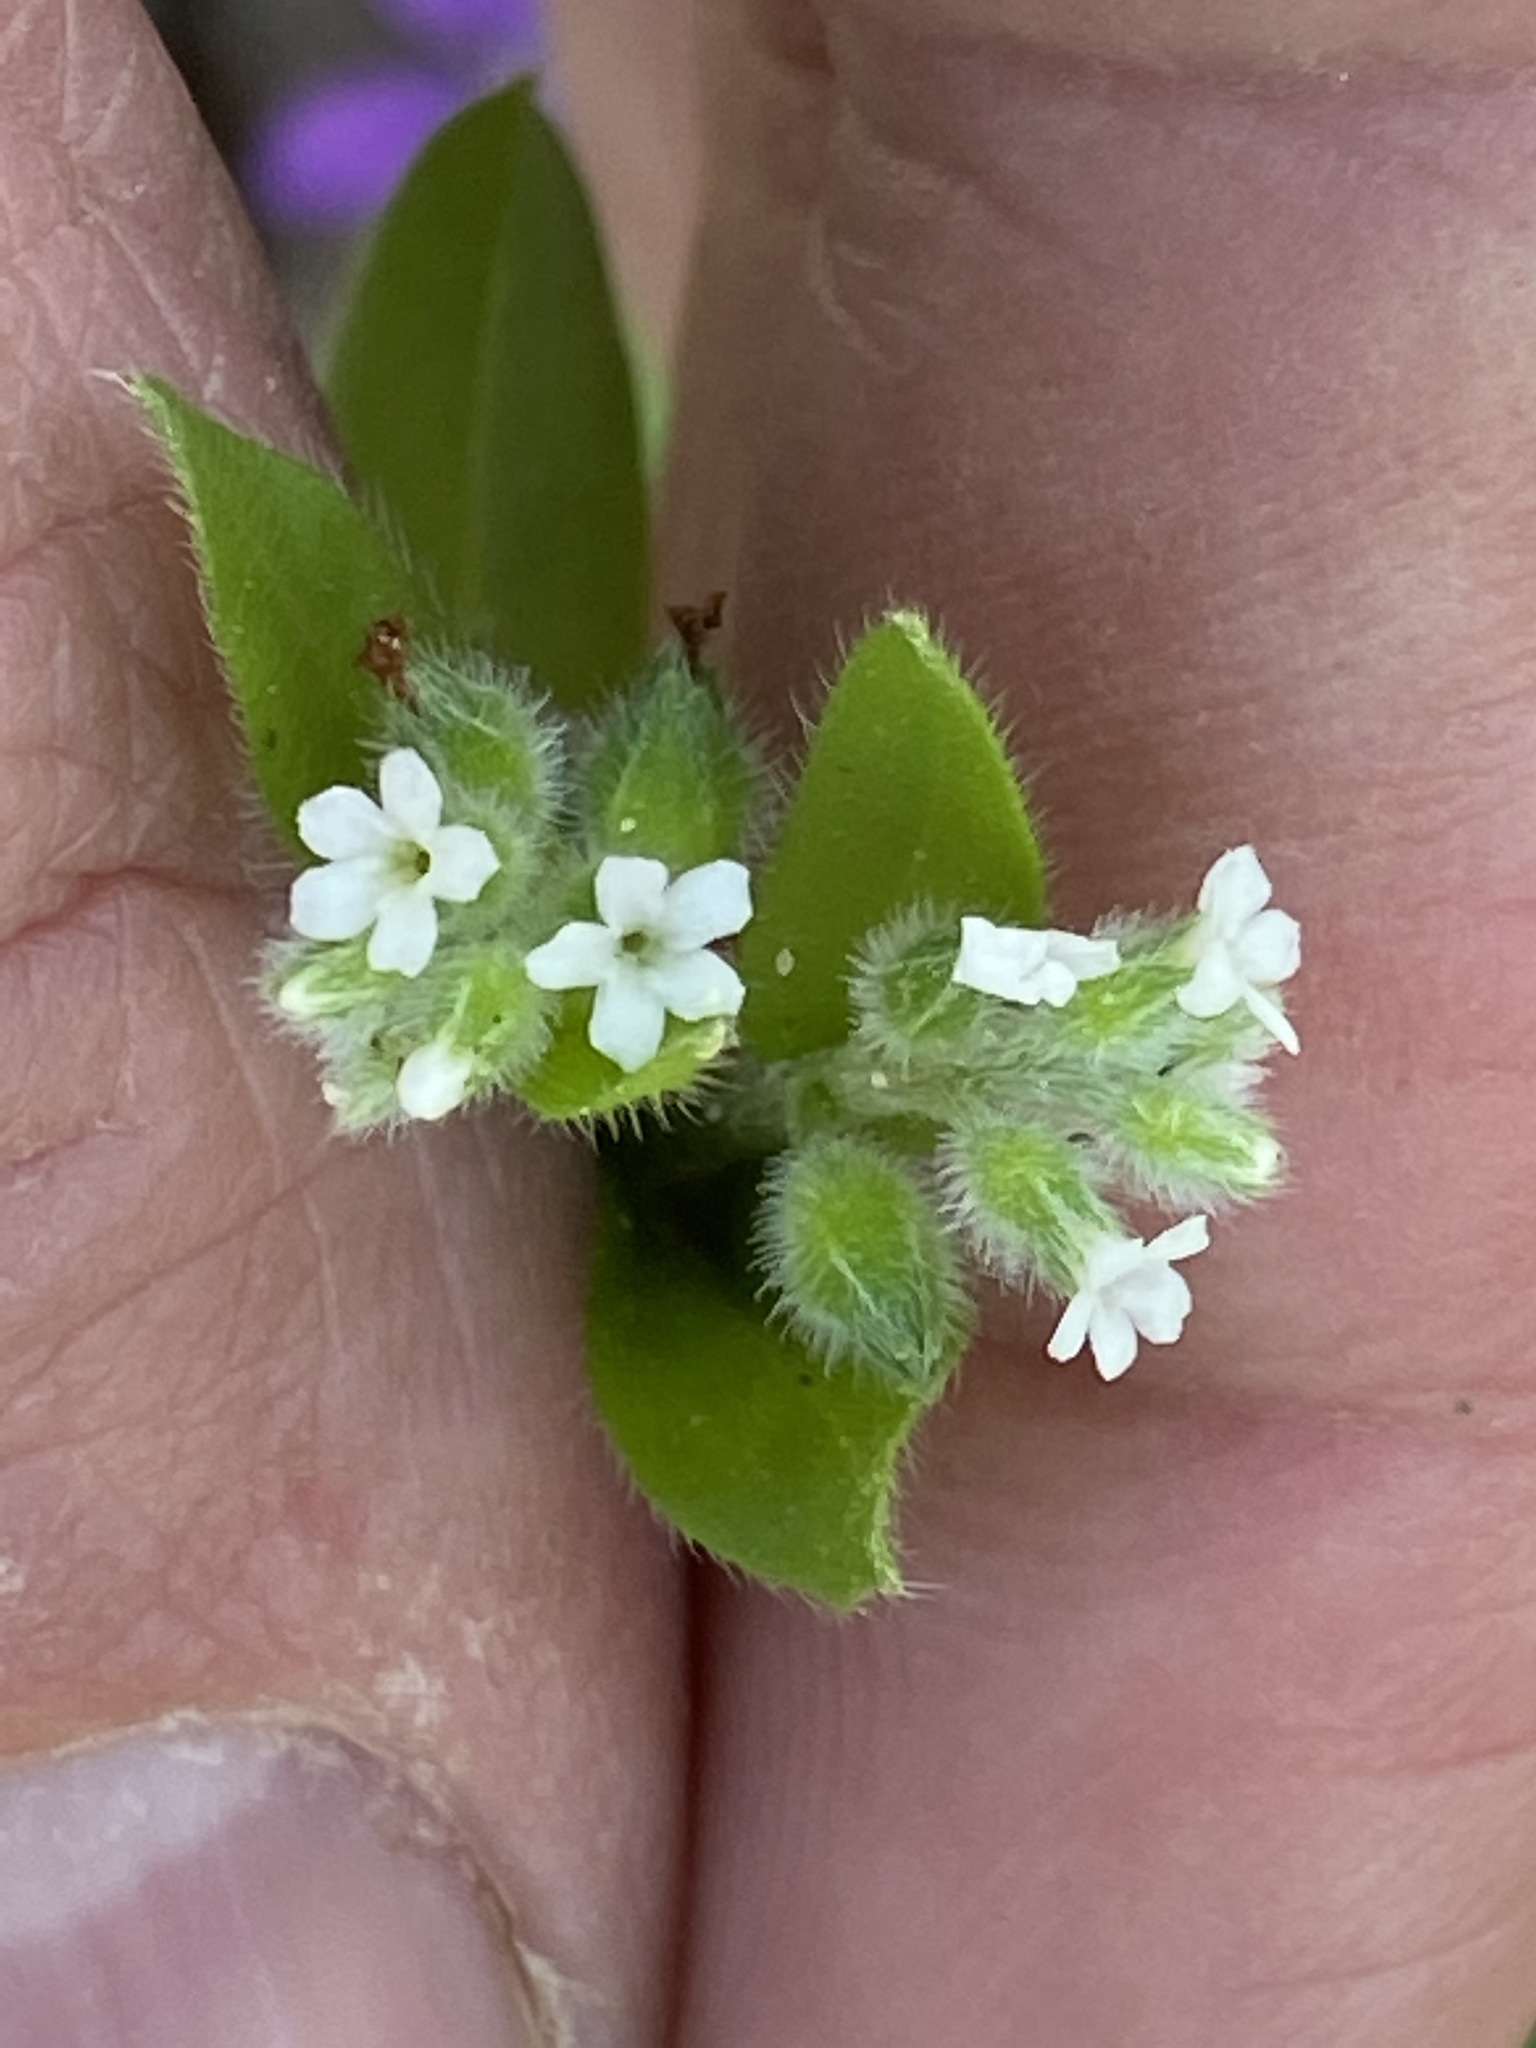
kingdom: Plantae
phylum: Tracheophyta
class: Magnoliopsida
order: Boraginales
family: Boraginaceae
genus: Myosotis
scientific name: Myosotis macrosperma
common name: Large-seed forget-me-not
